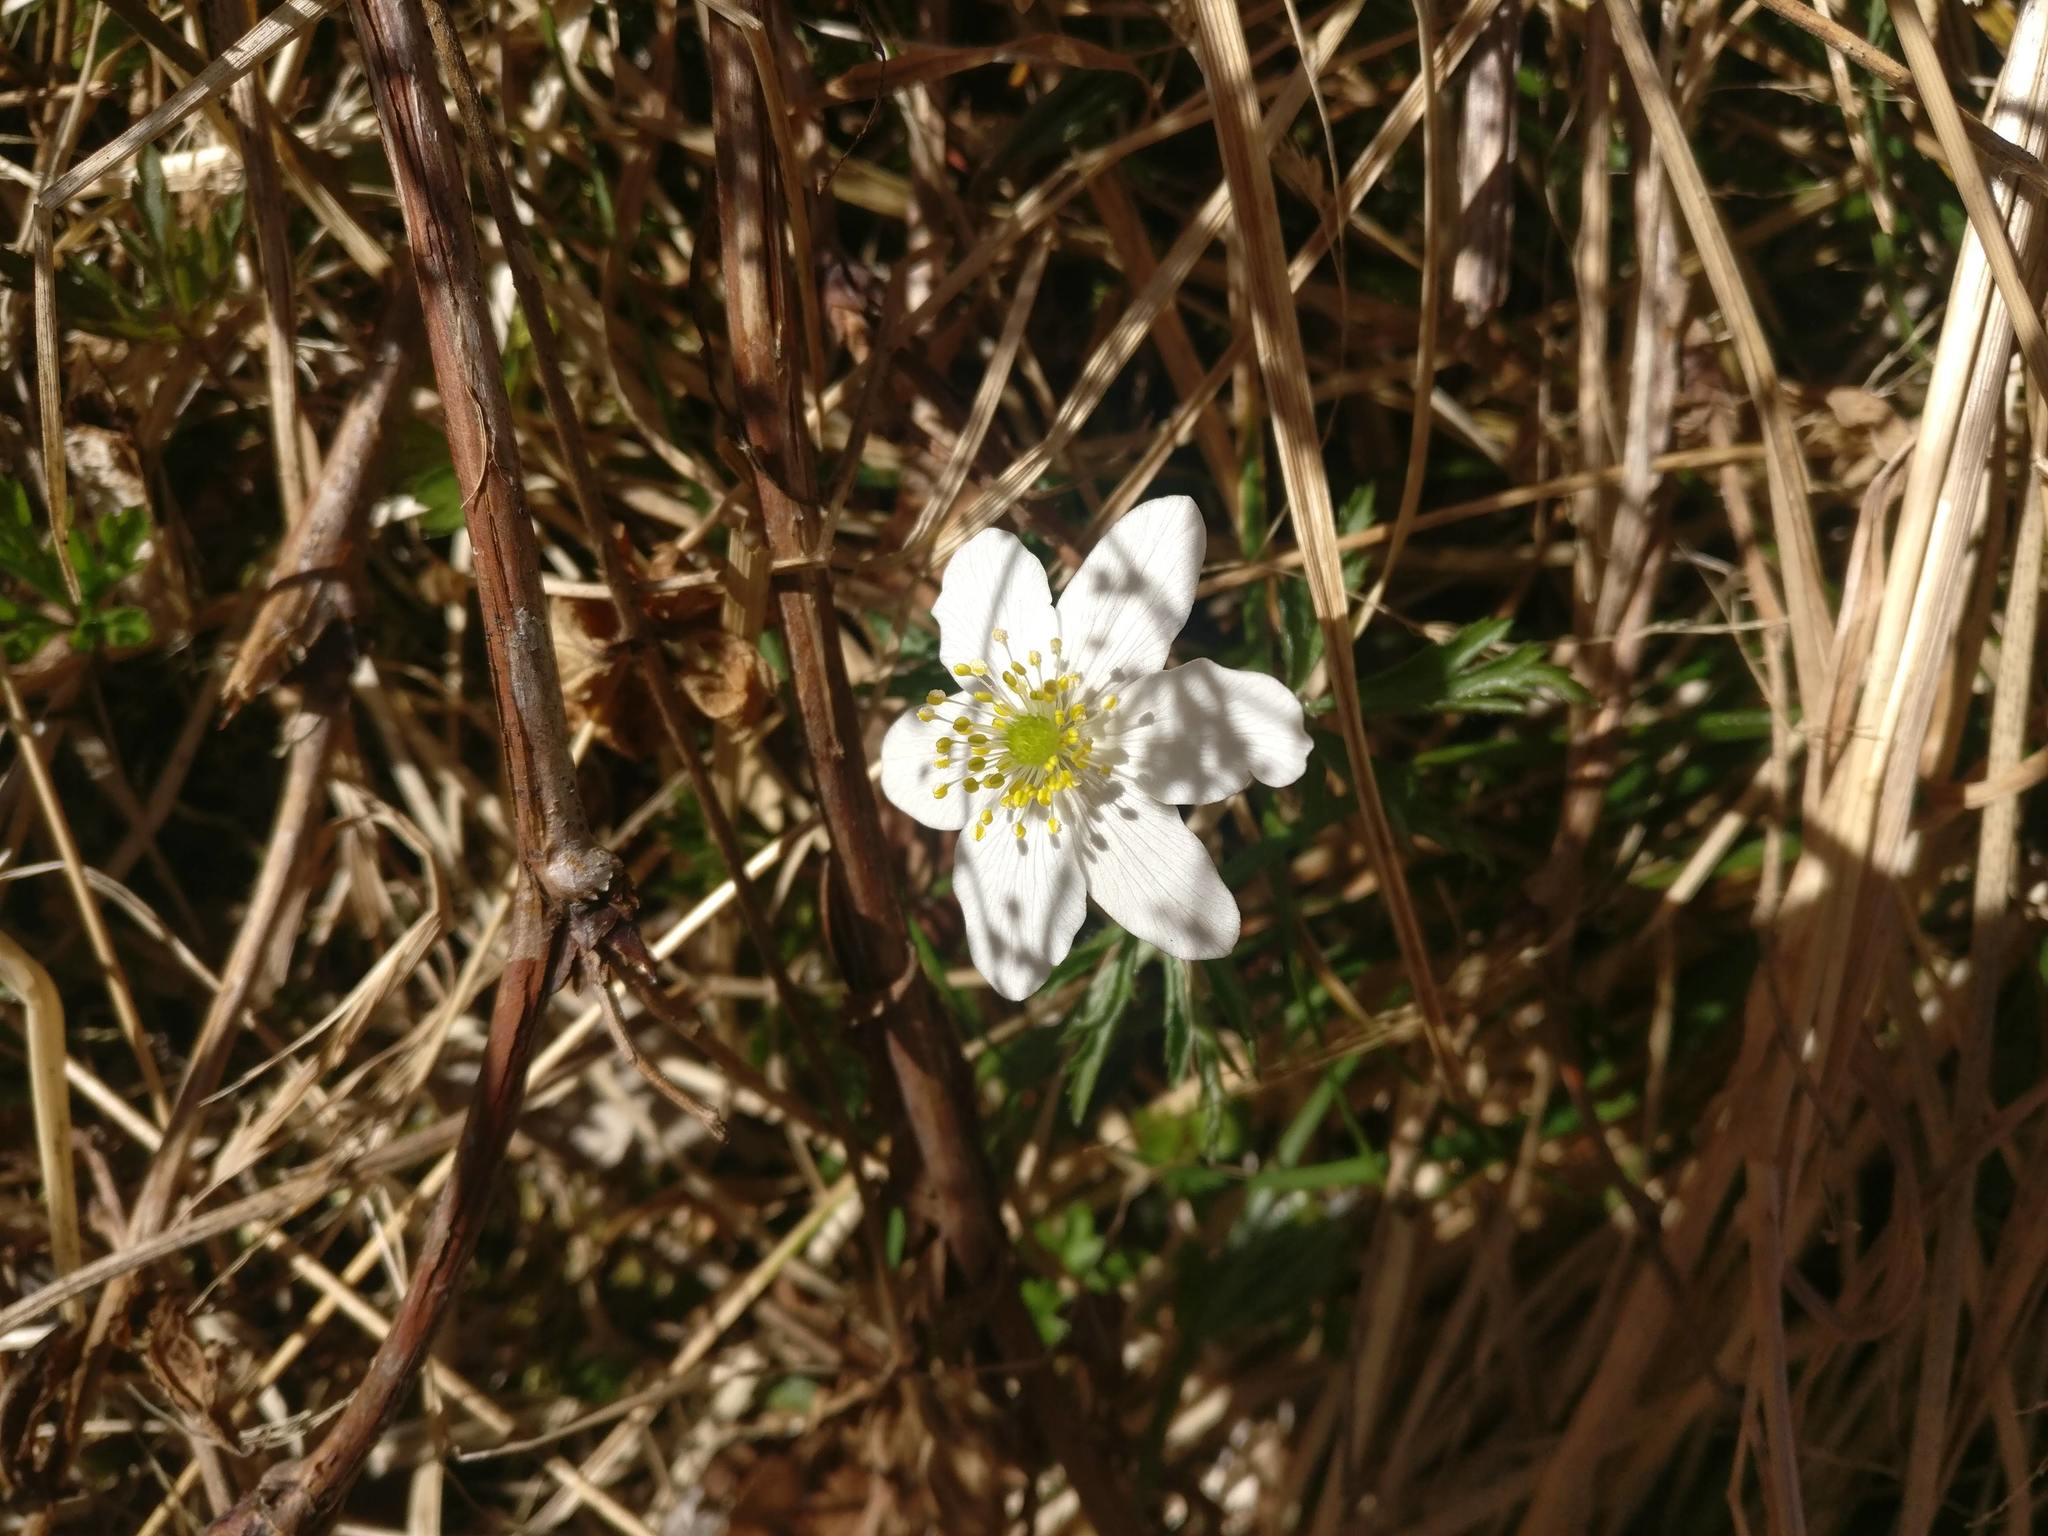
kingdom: Plantae
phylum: Tracheophyta
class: Magnoliopsida
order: Ranunculales
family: Ranunculaceae
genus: Anemone
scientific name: Anemone nemorosa
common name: Wood anemone
